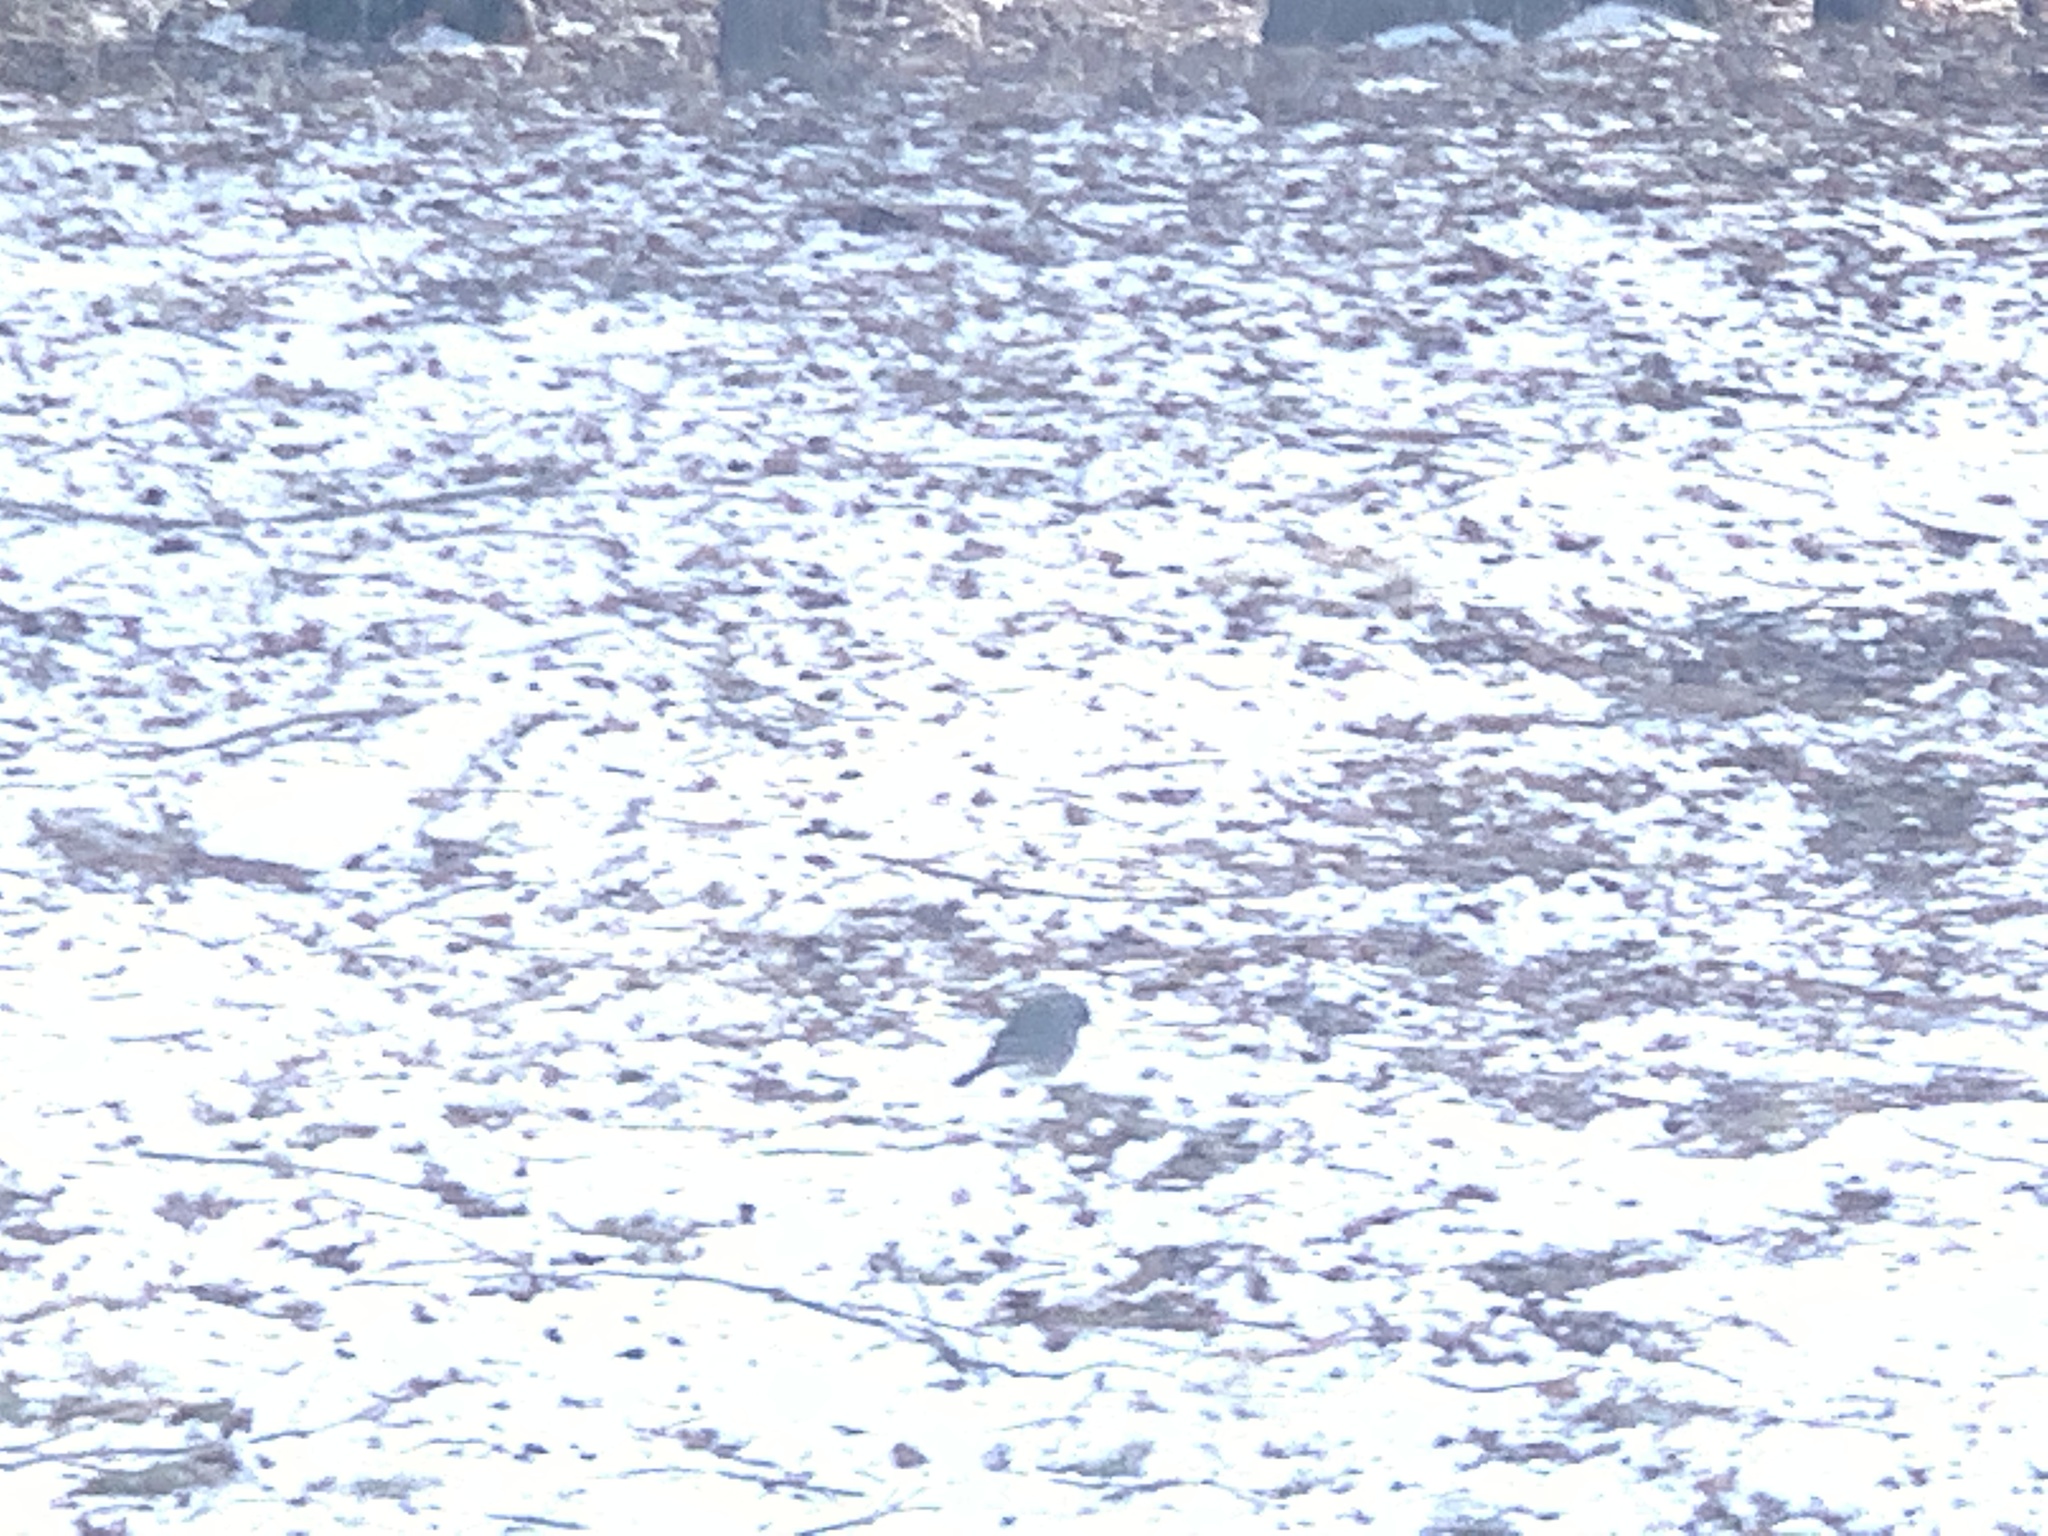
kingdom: Animalia
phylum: Chordata
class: Aves
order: Passeriformes
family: Passerellidae
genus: Junco
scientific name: Junco hyemalis
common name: Dark-eyed junco
